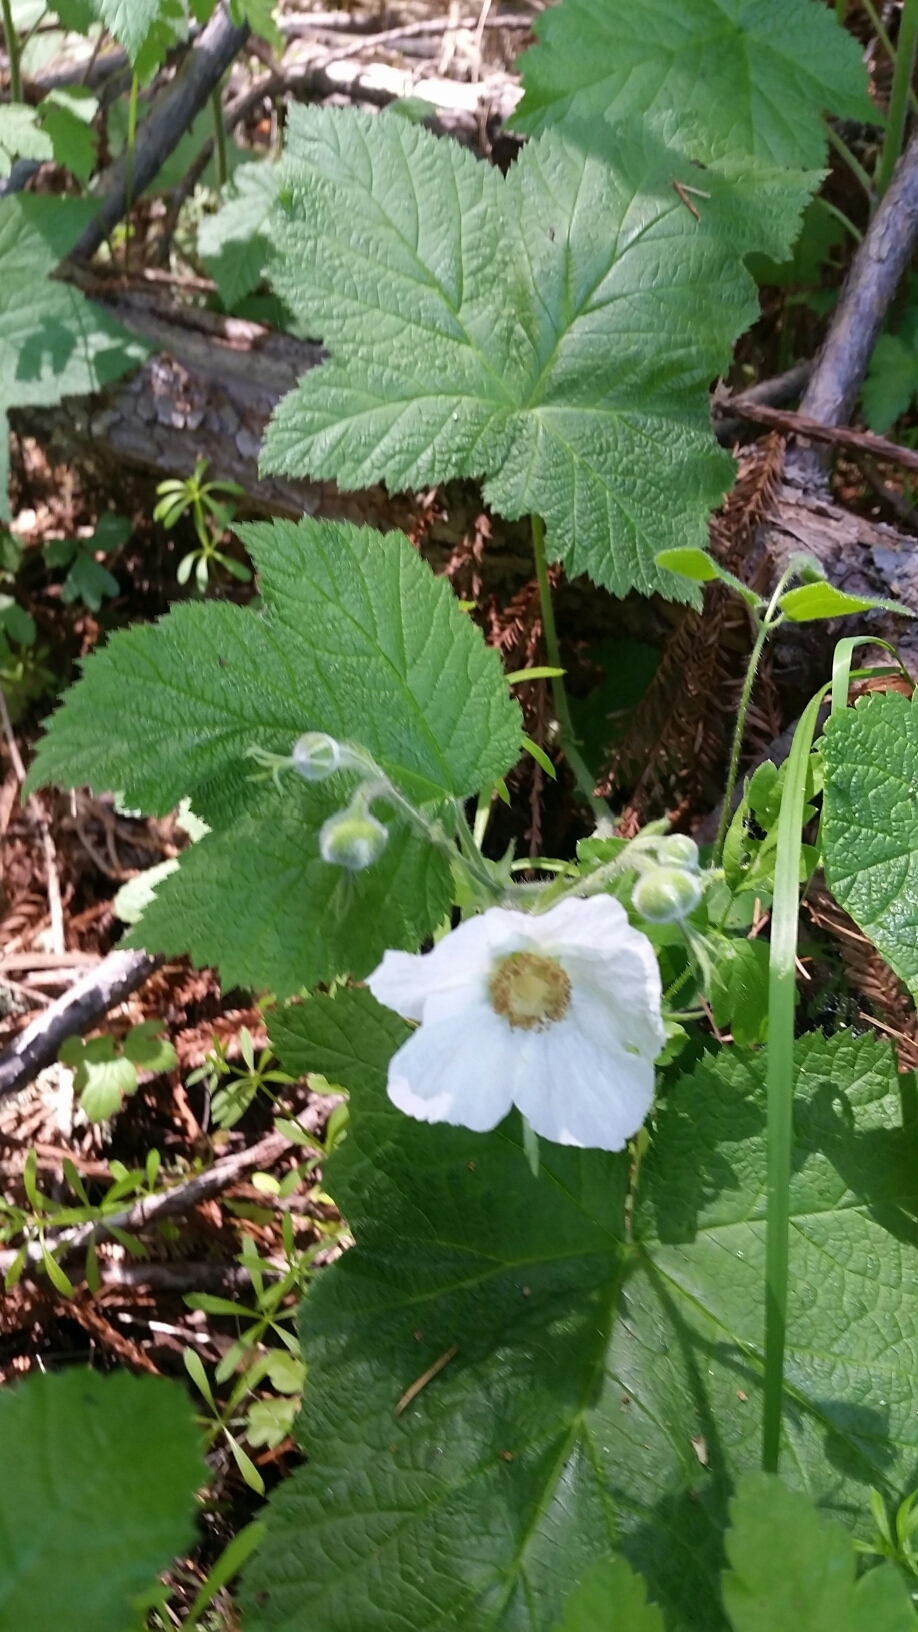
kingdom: Plantae
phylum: Tracheophyta
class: Magnoliopsida
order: Rosales
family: Rosaceae
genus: Rubus
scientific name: Rubus parviflorus
